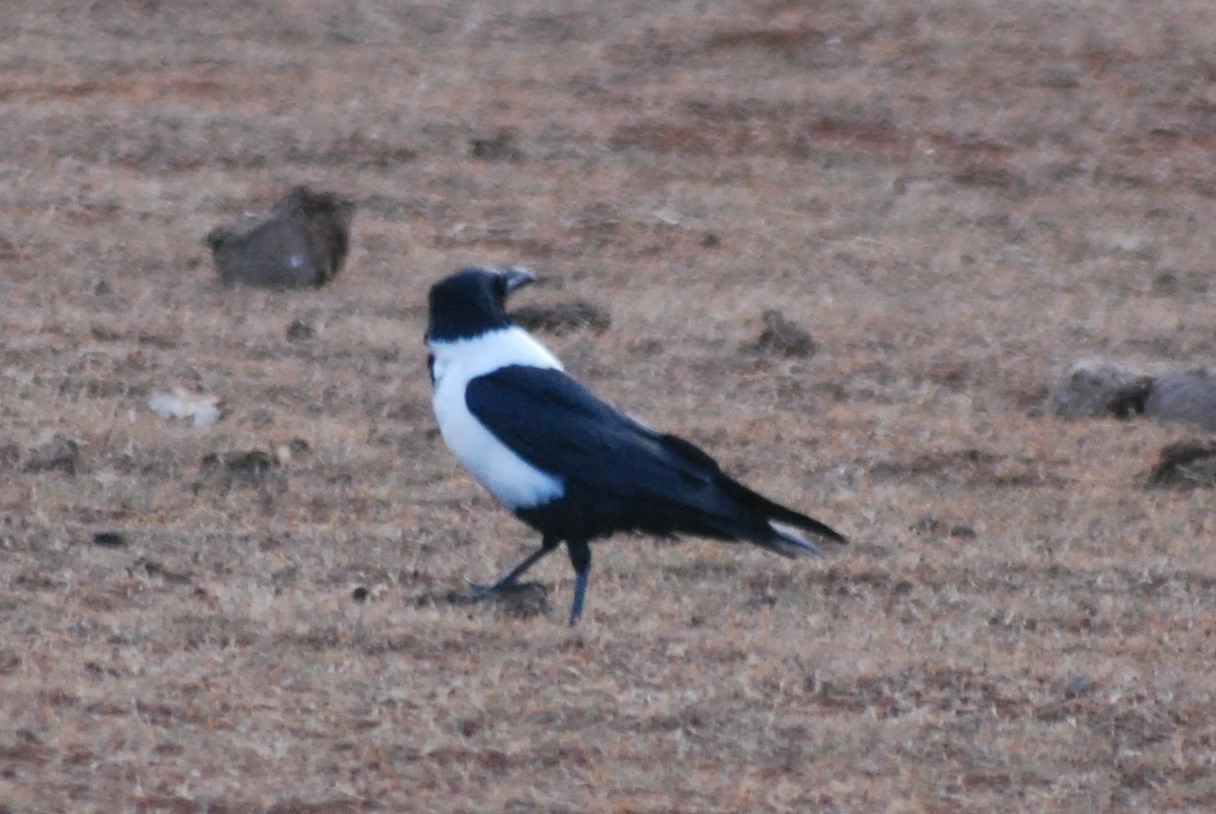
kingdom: Animalia
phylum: Chordata
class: Aves
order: Passeriformes
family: Corvidae
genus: Corvus
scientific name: Corvus albus
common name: Pied crow
